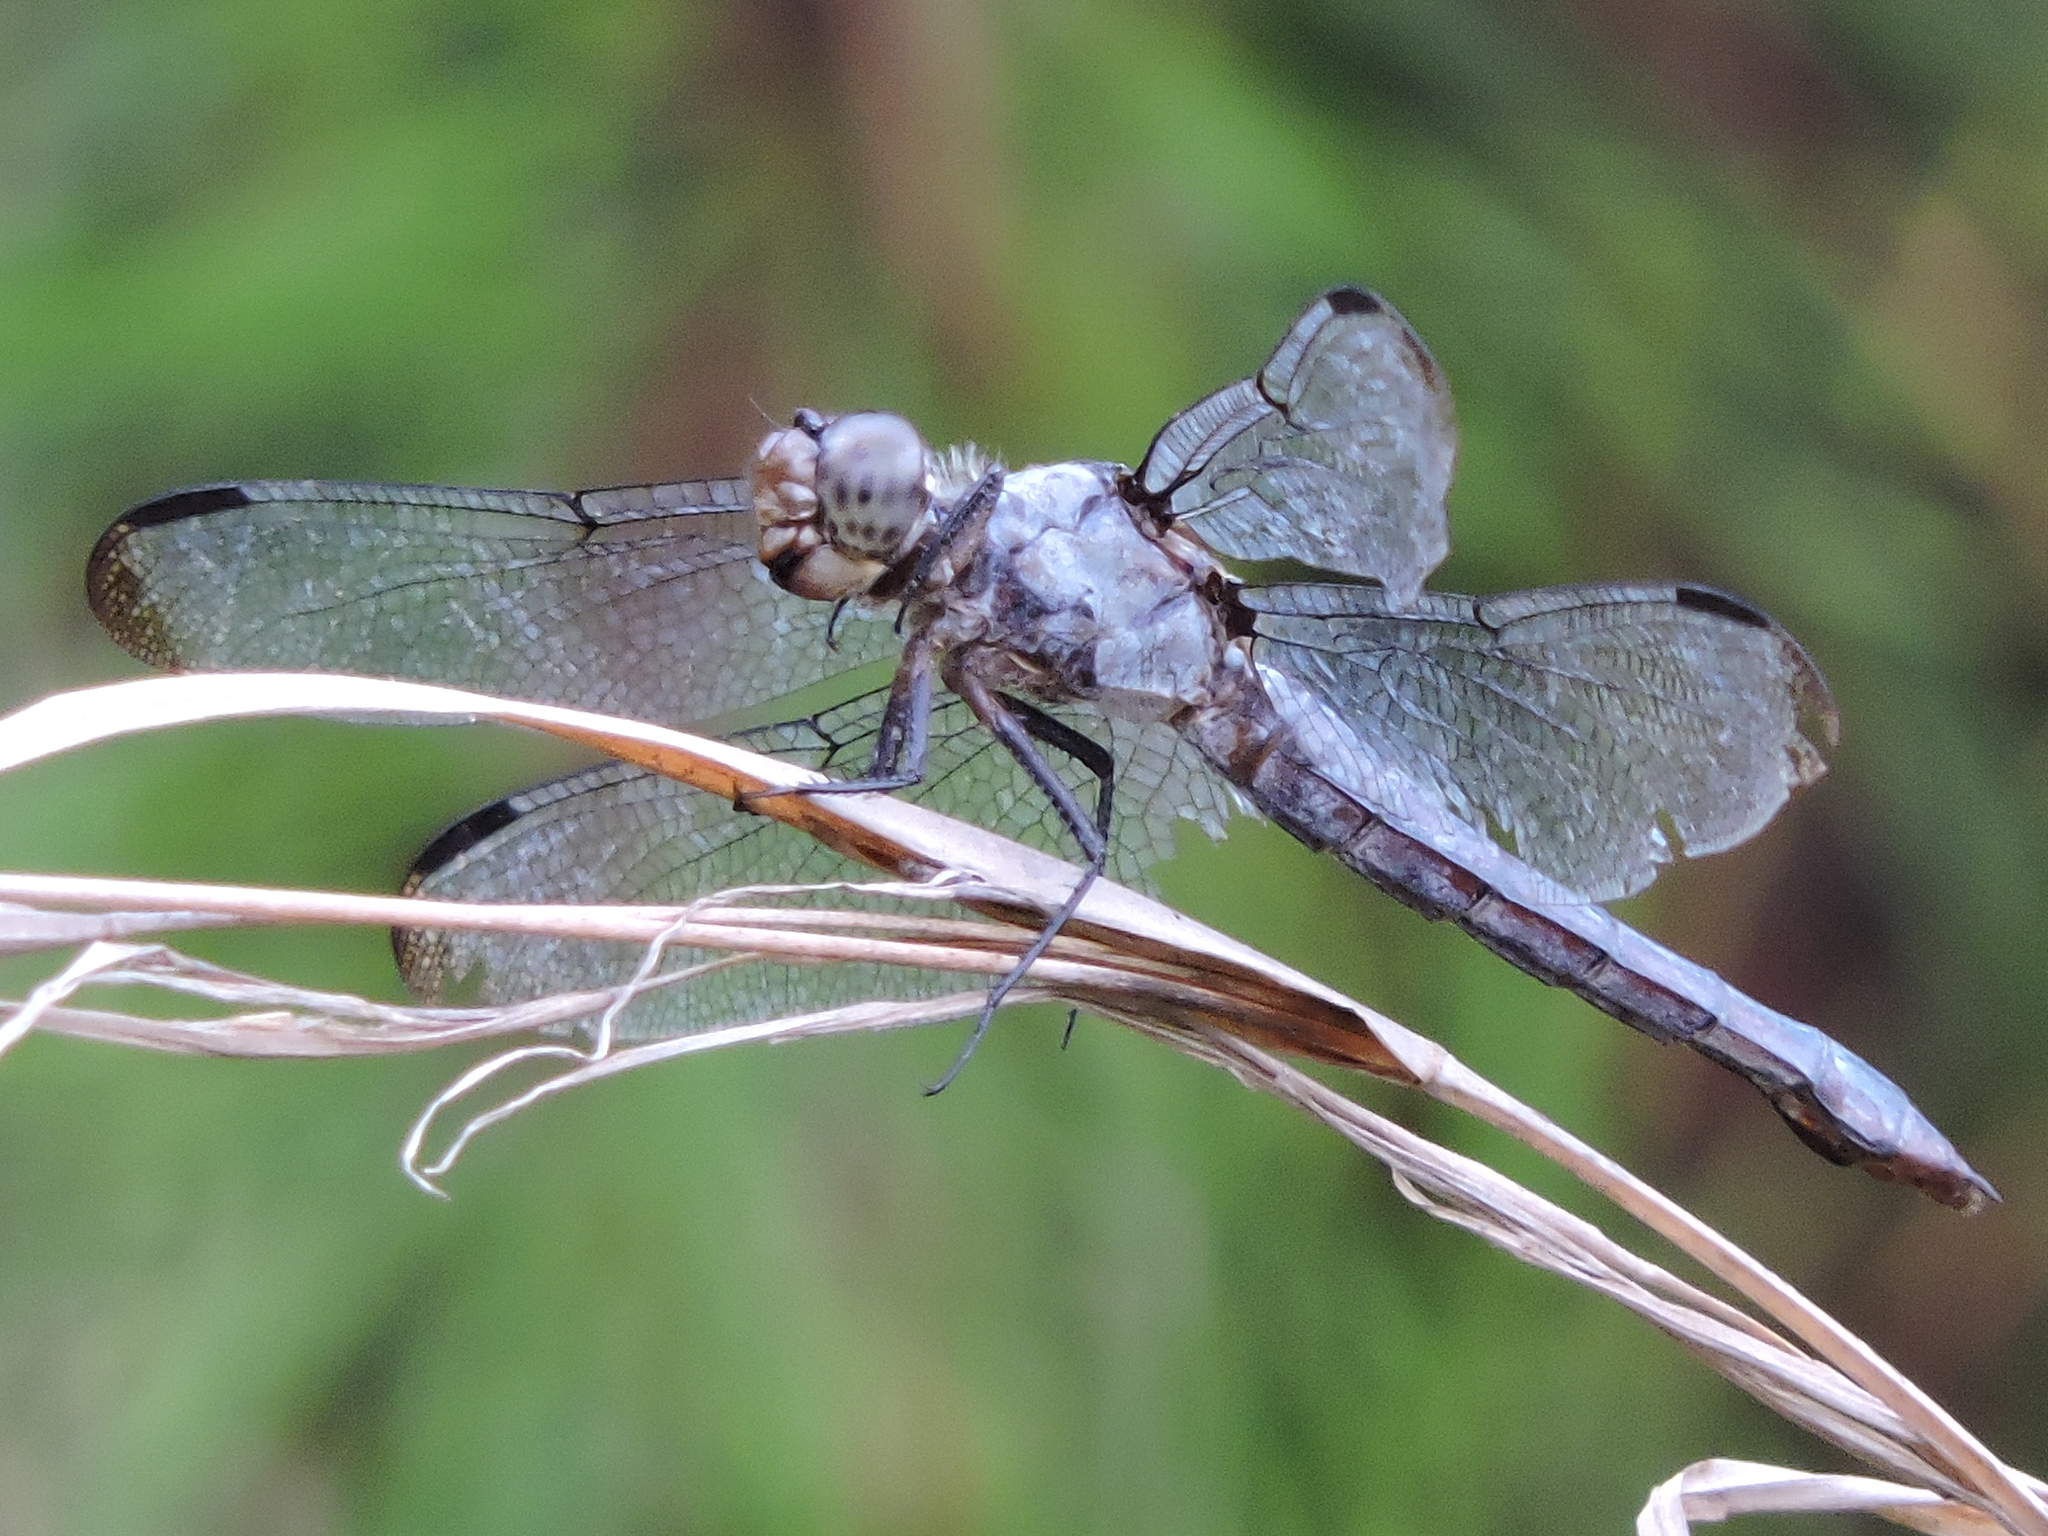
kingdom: Animalia
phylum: Arthropoda
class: Insecta
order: Odonata
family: Libellulidae
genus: Libellula
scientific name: Libellula vibrans
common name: Great blue skimmer
